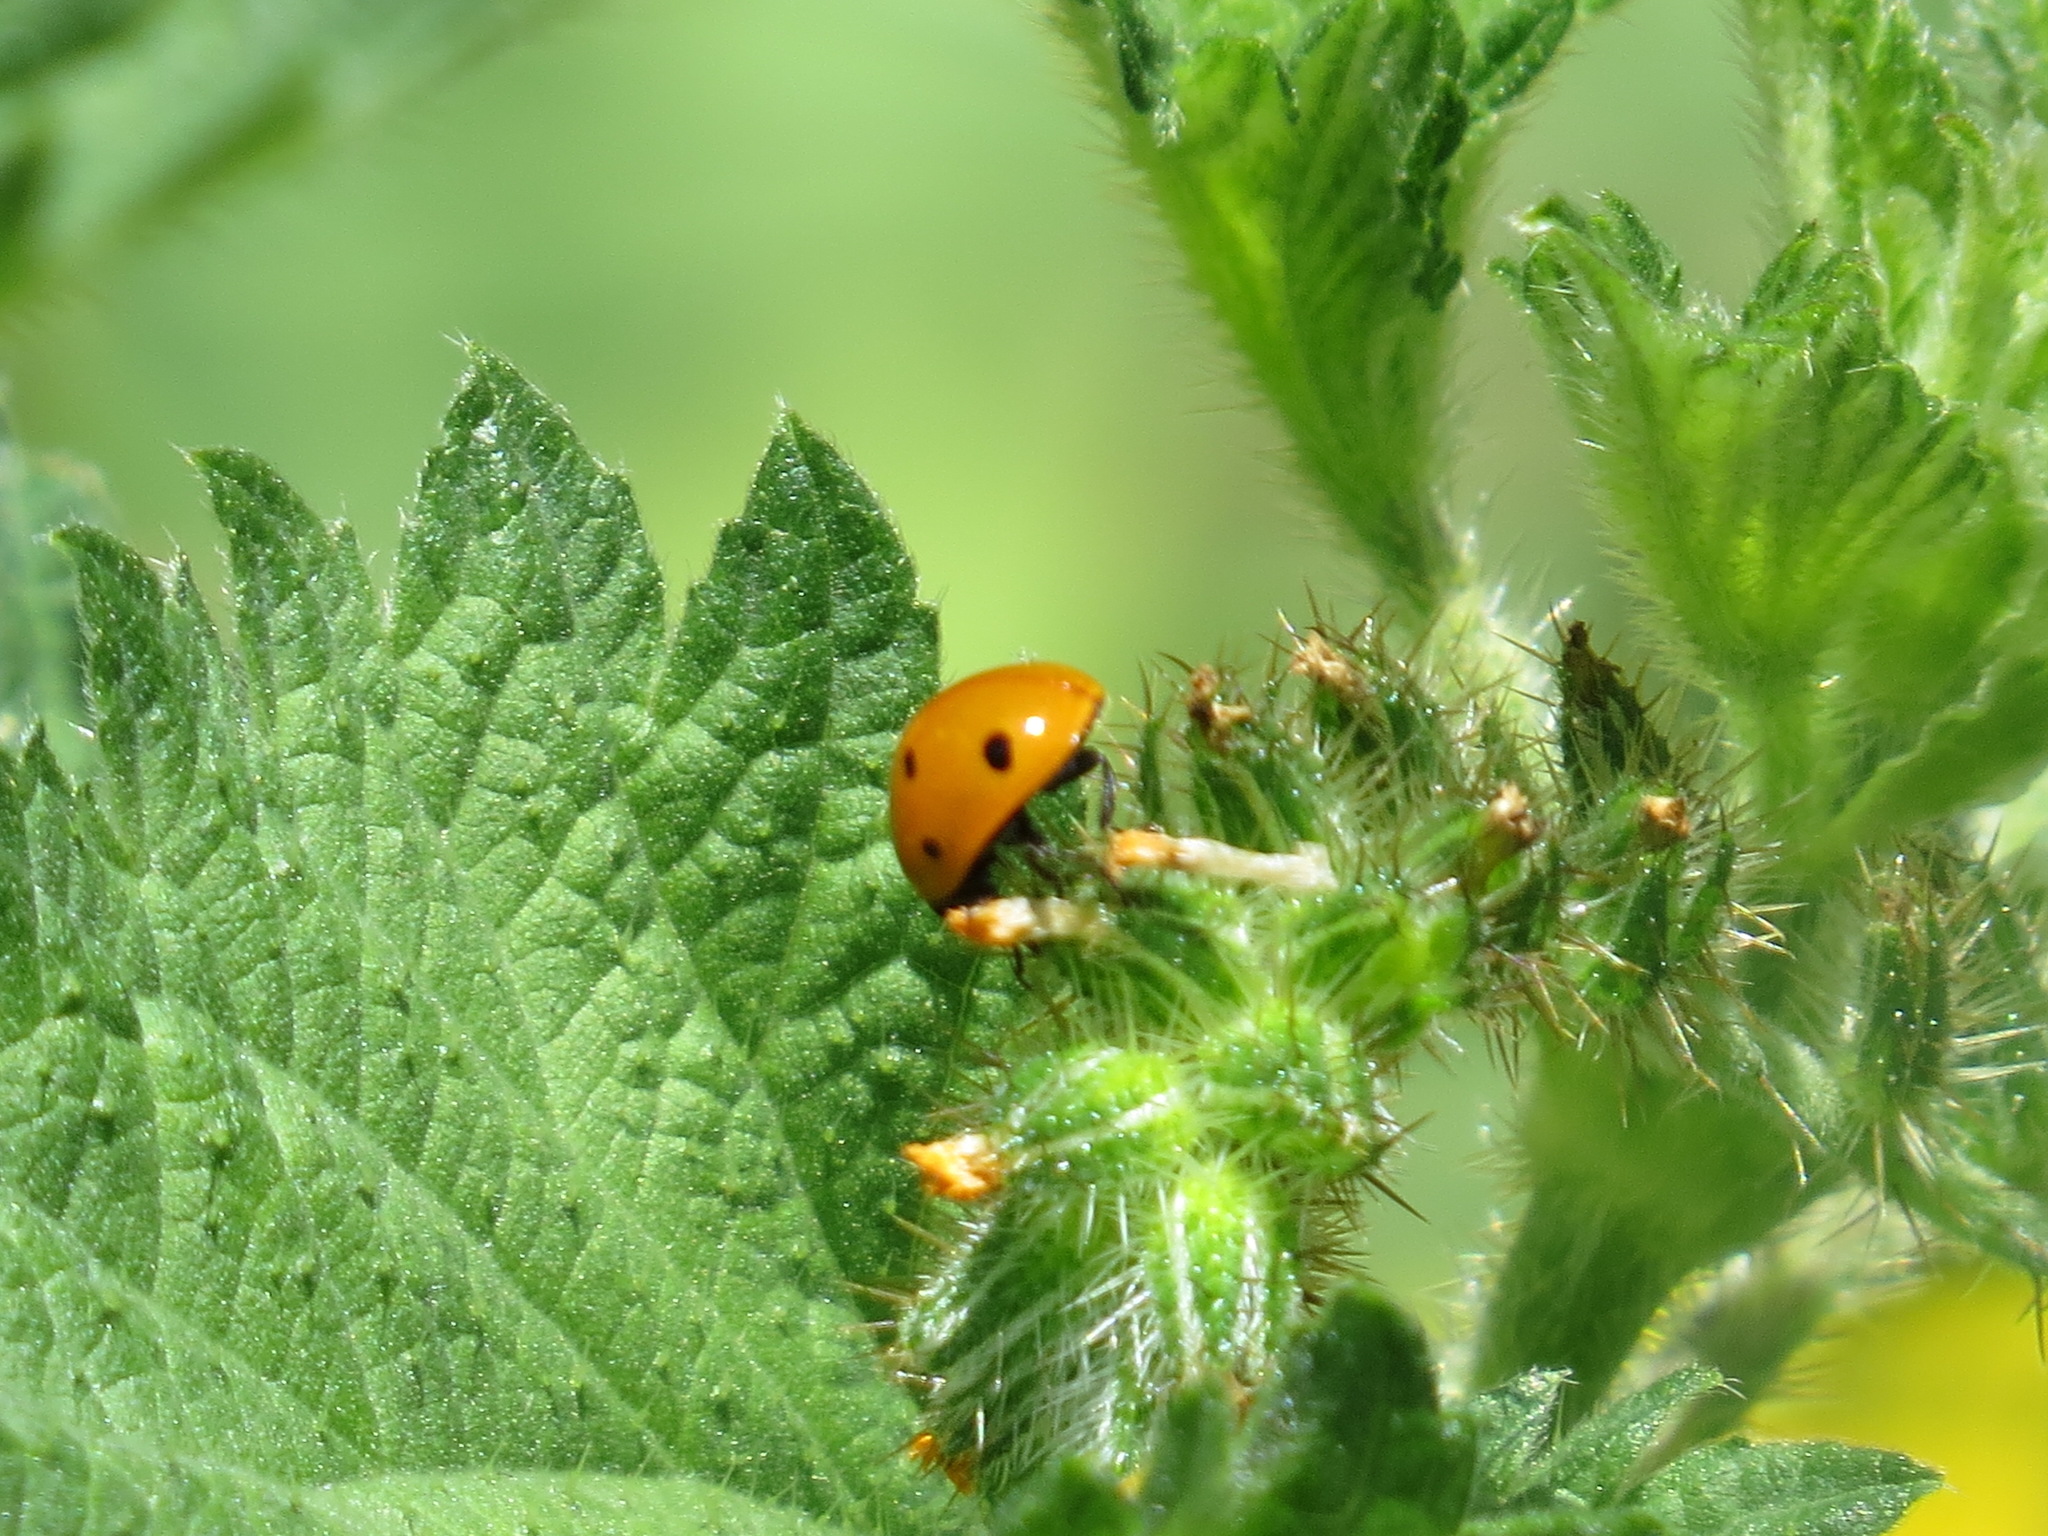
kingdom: Animalia
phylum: Arthropoda
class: Insecta
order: Coleoptera
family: Coccinellidae
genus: Coccinella
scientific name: Coccinella californica
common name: Lady beetle
